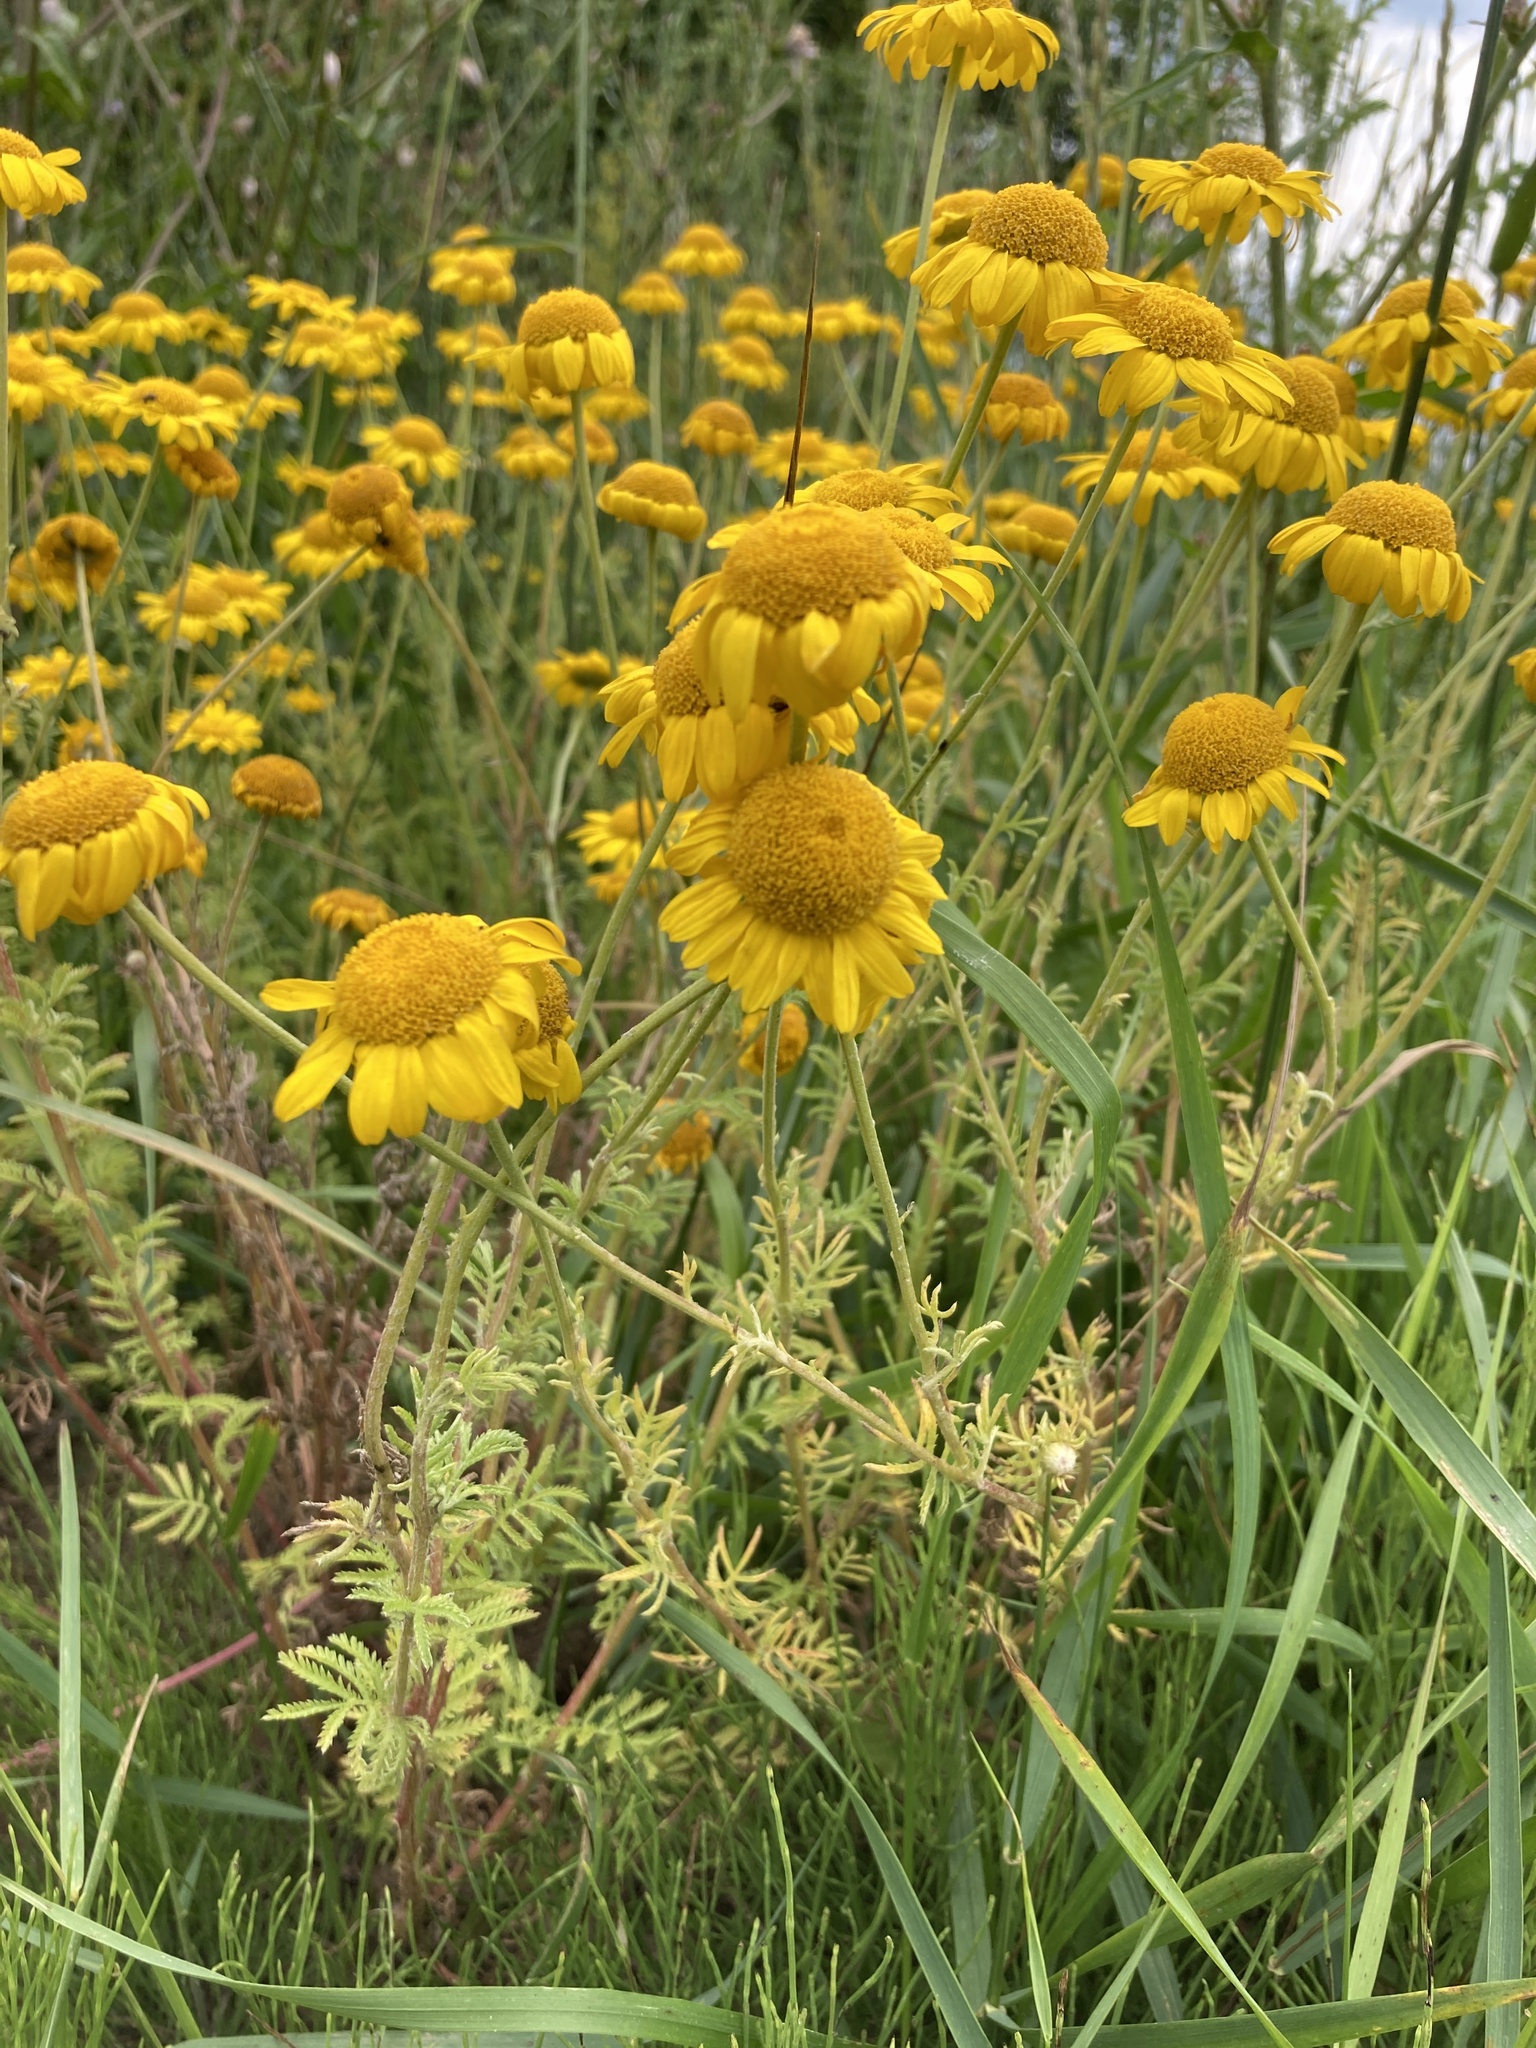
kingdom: Plantae
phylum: Tracheophyta
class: Magnoliopsida
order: Asterales
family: Asteraceae
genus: Cota
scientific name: Cota tinctoria
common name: Golden chamomile
